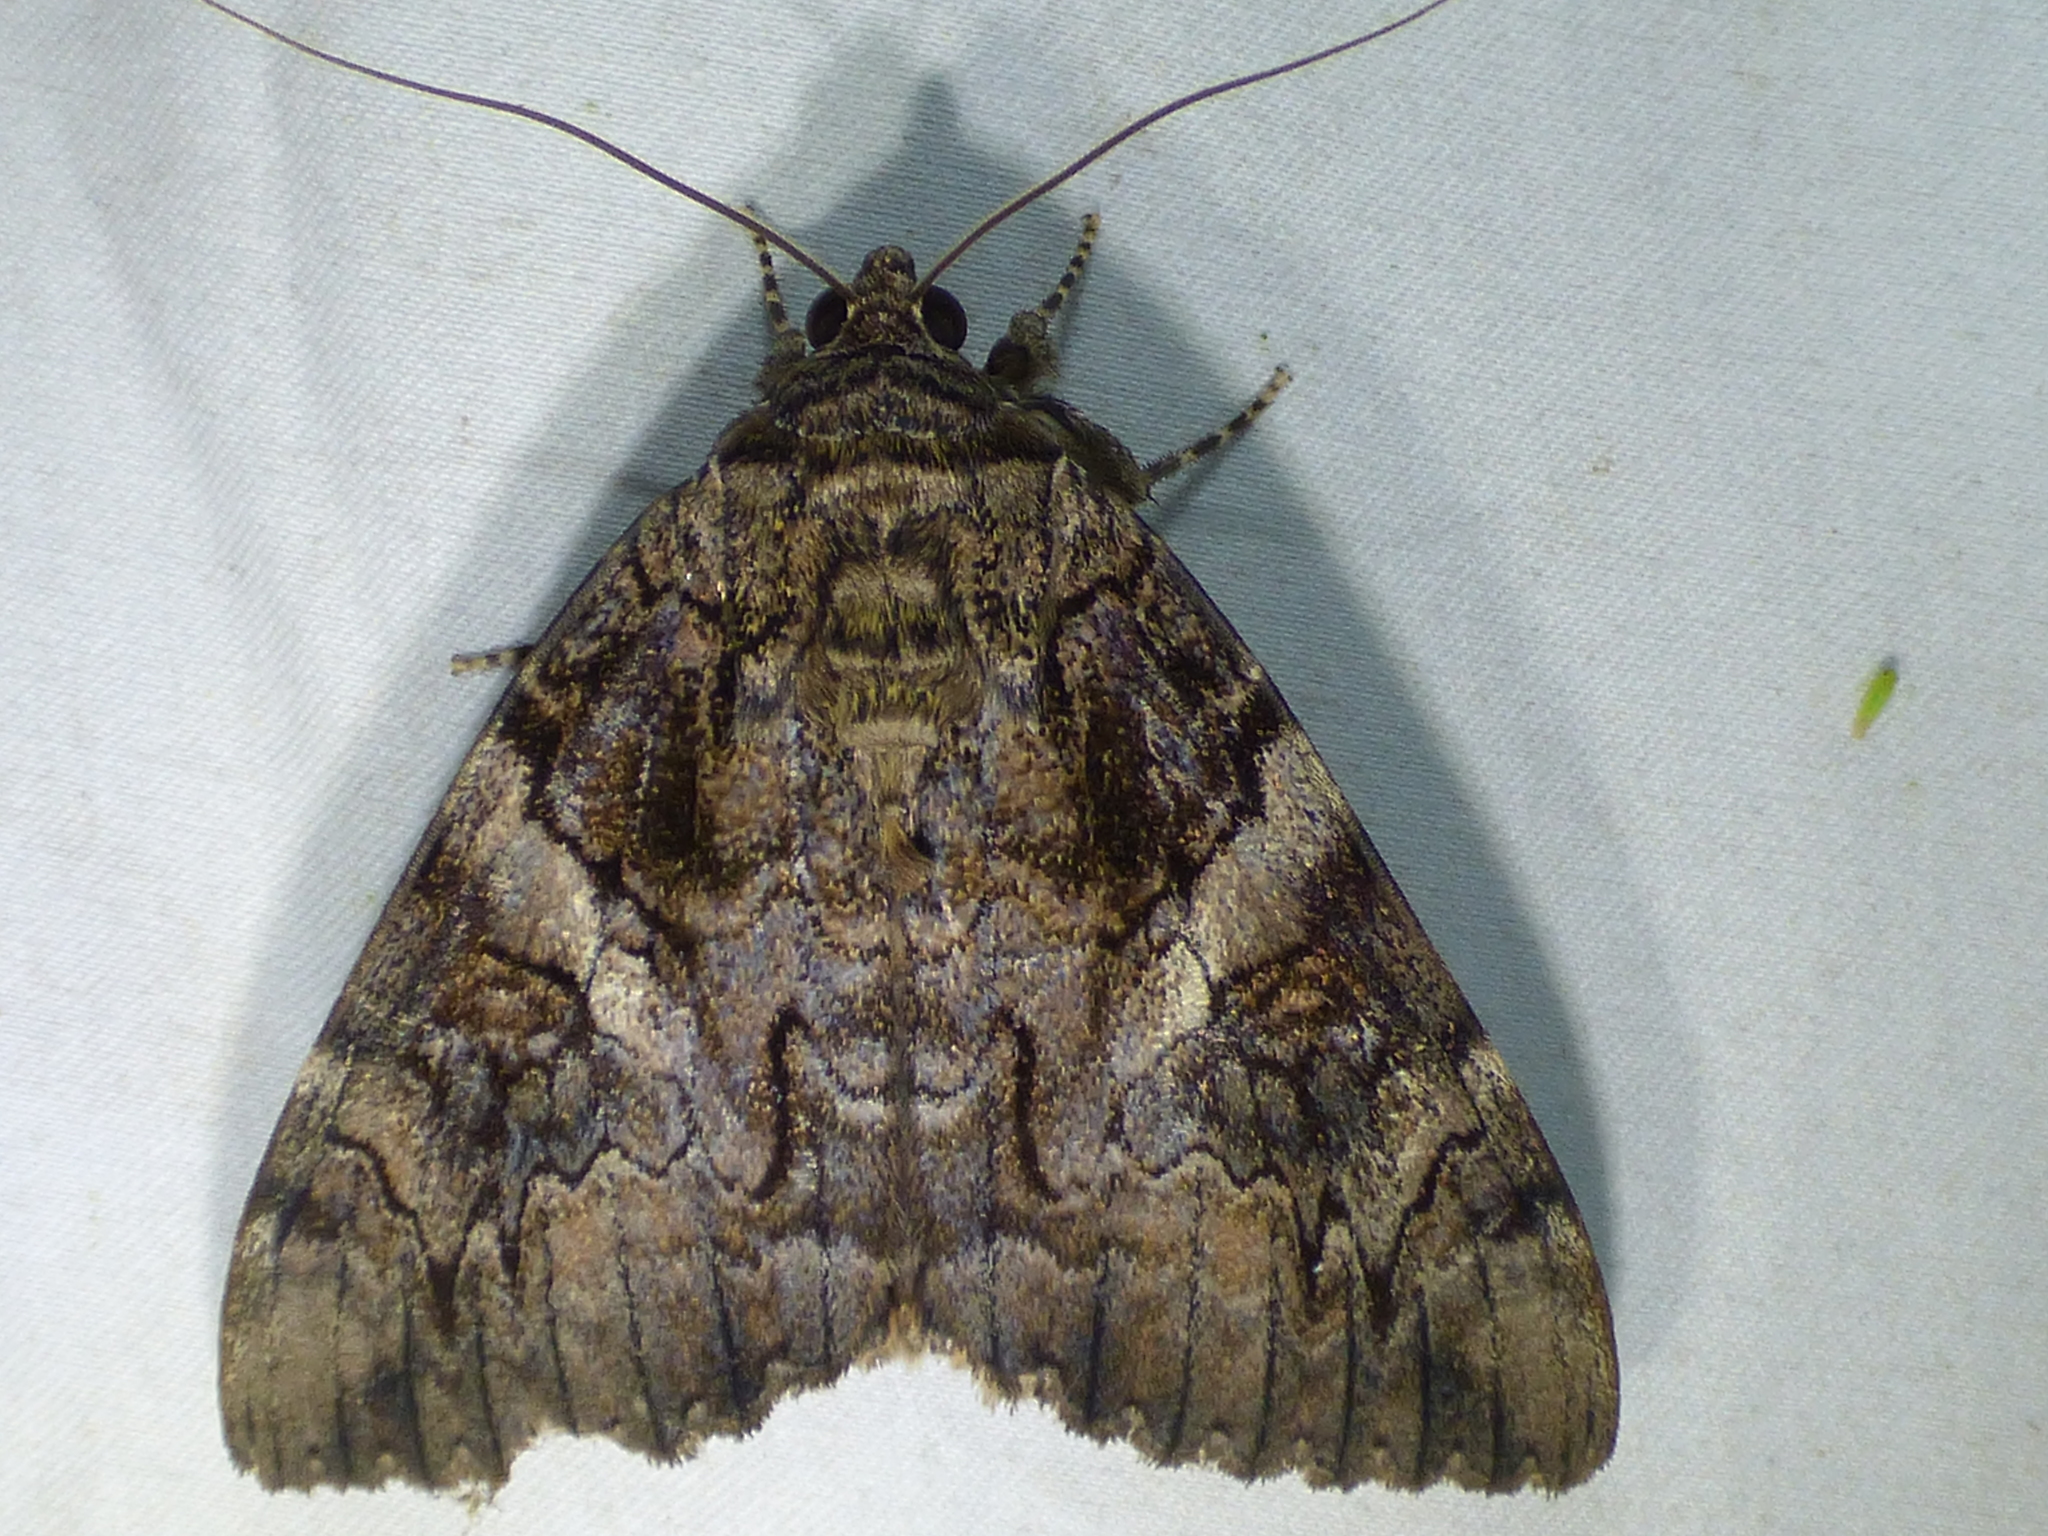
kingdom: Animalia
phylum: Arthropoda
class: Insecta
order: Lepidoptera
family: Erebidae
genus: Catocala
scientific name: Catocala piatrix
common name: The penitent underwing
